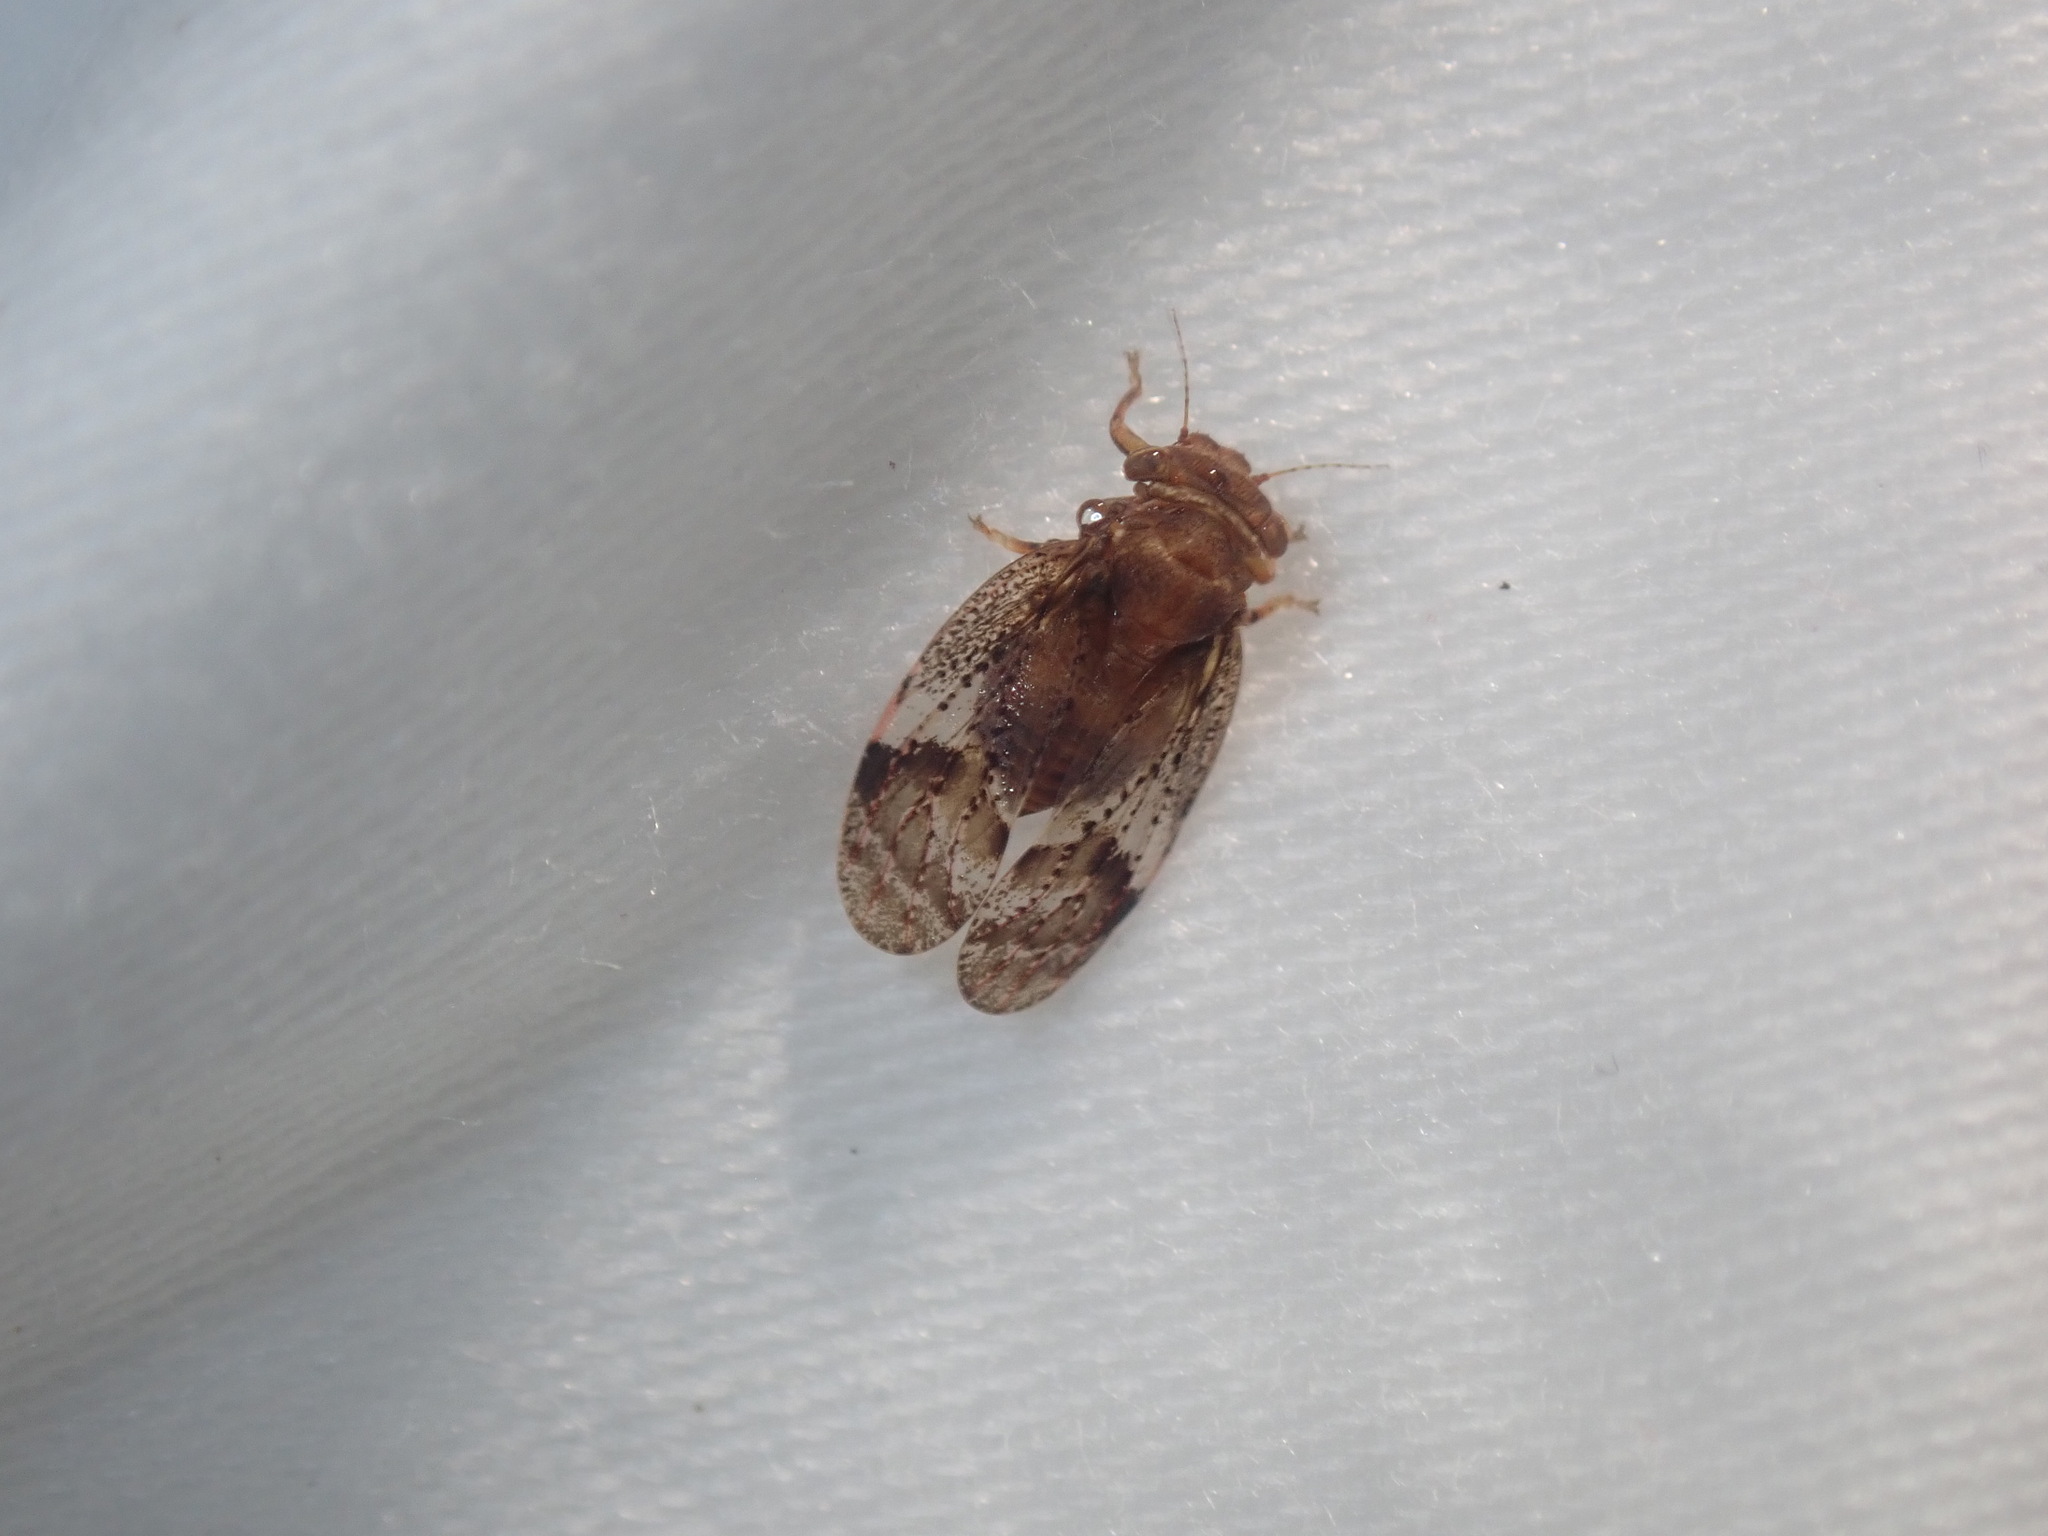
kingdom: Animalia
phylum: Arthropoda
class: Insecta
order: Hemiptera
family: Aphalaridae
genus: Dasypsylla
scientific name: Dasypsylla brunnea
